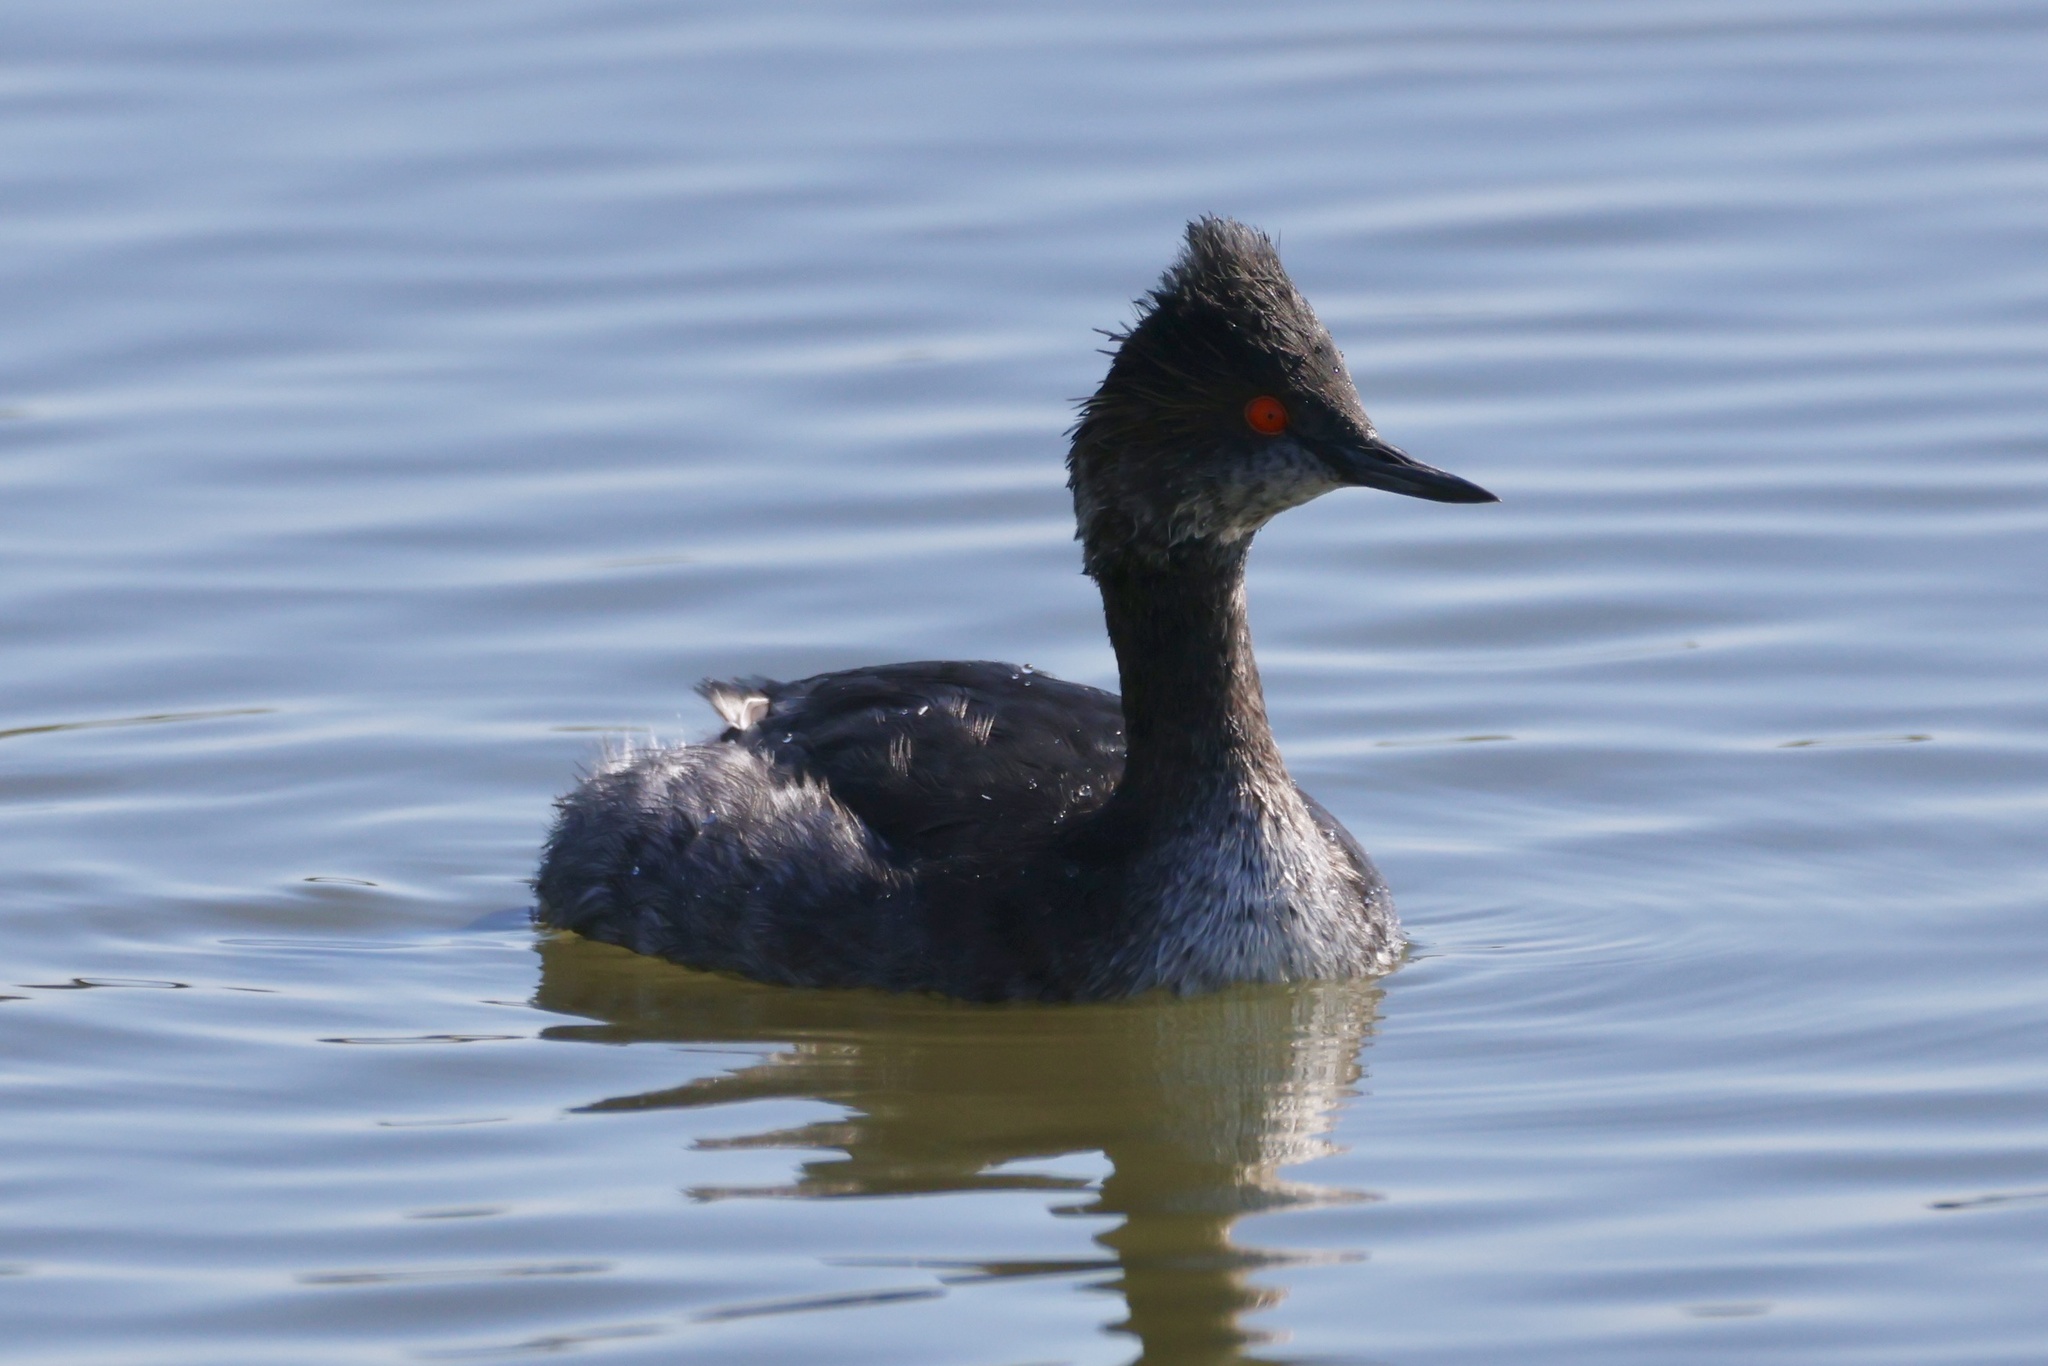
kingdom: Animalia
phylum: Chordata
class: Aves
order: Podicipediformes
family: Podicipedidae
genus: Podiceps
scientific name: Podiceps nigricollis
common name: Black-necked grebe
